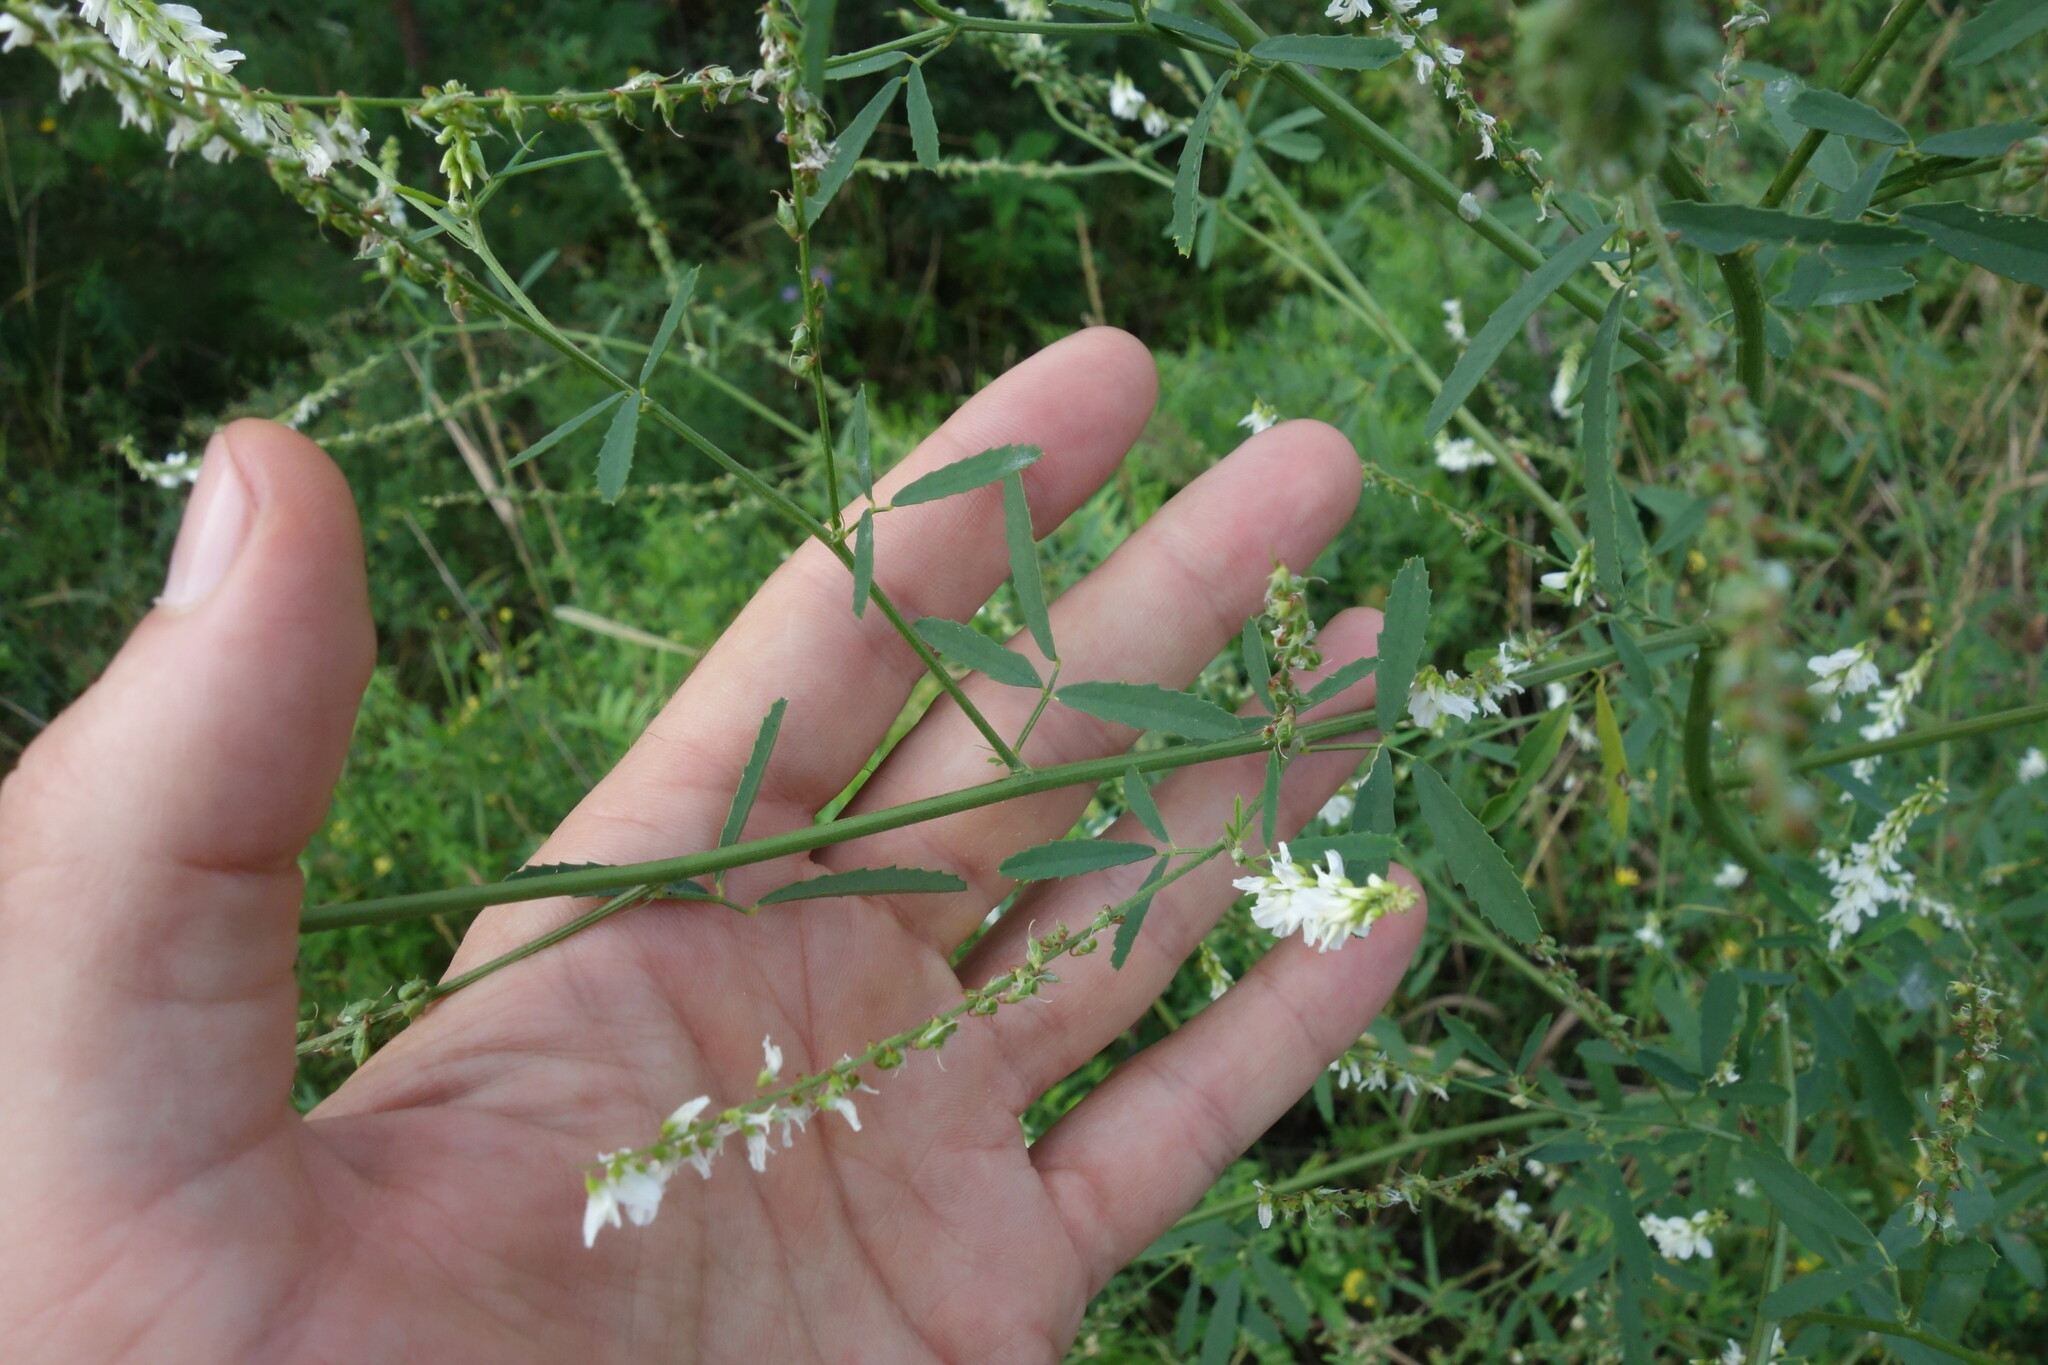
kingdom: Plantae
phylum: Tracheophyta
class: Magnoliopsida
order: Fabales
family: Fabaceae
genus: Melilotus
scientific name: Melilotus albus
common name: White melilot
